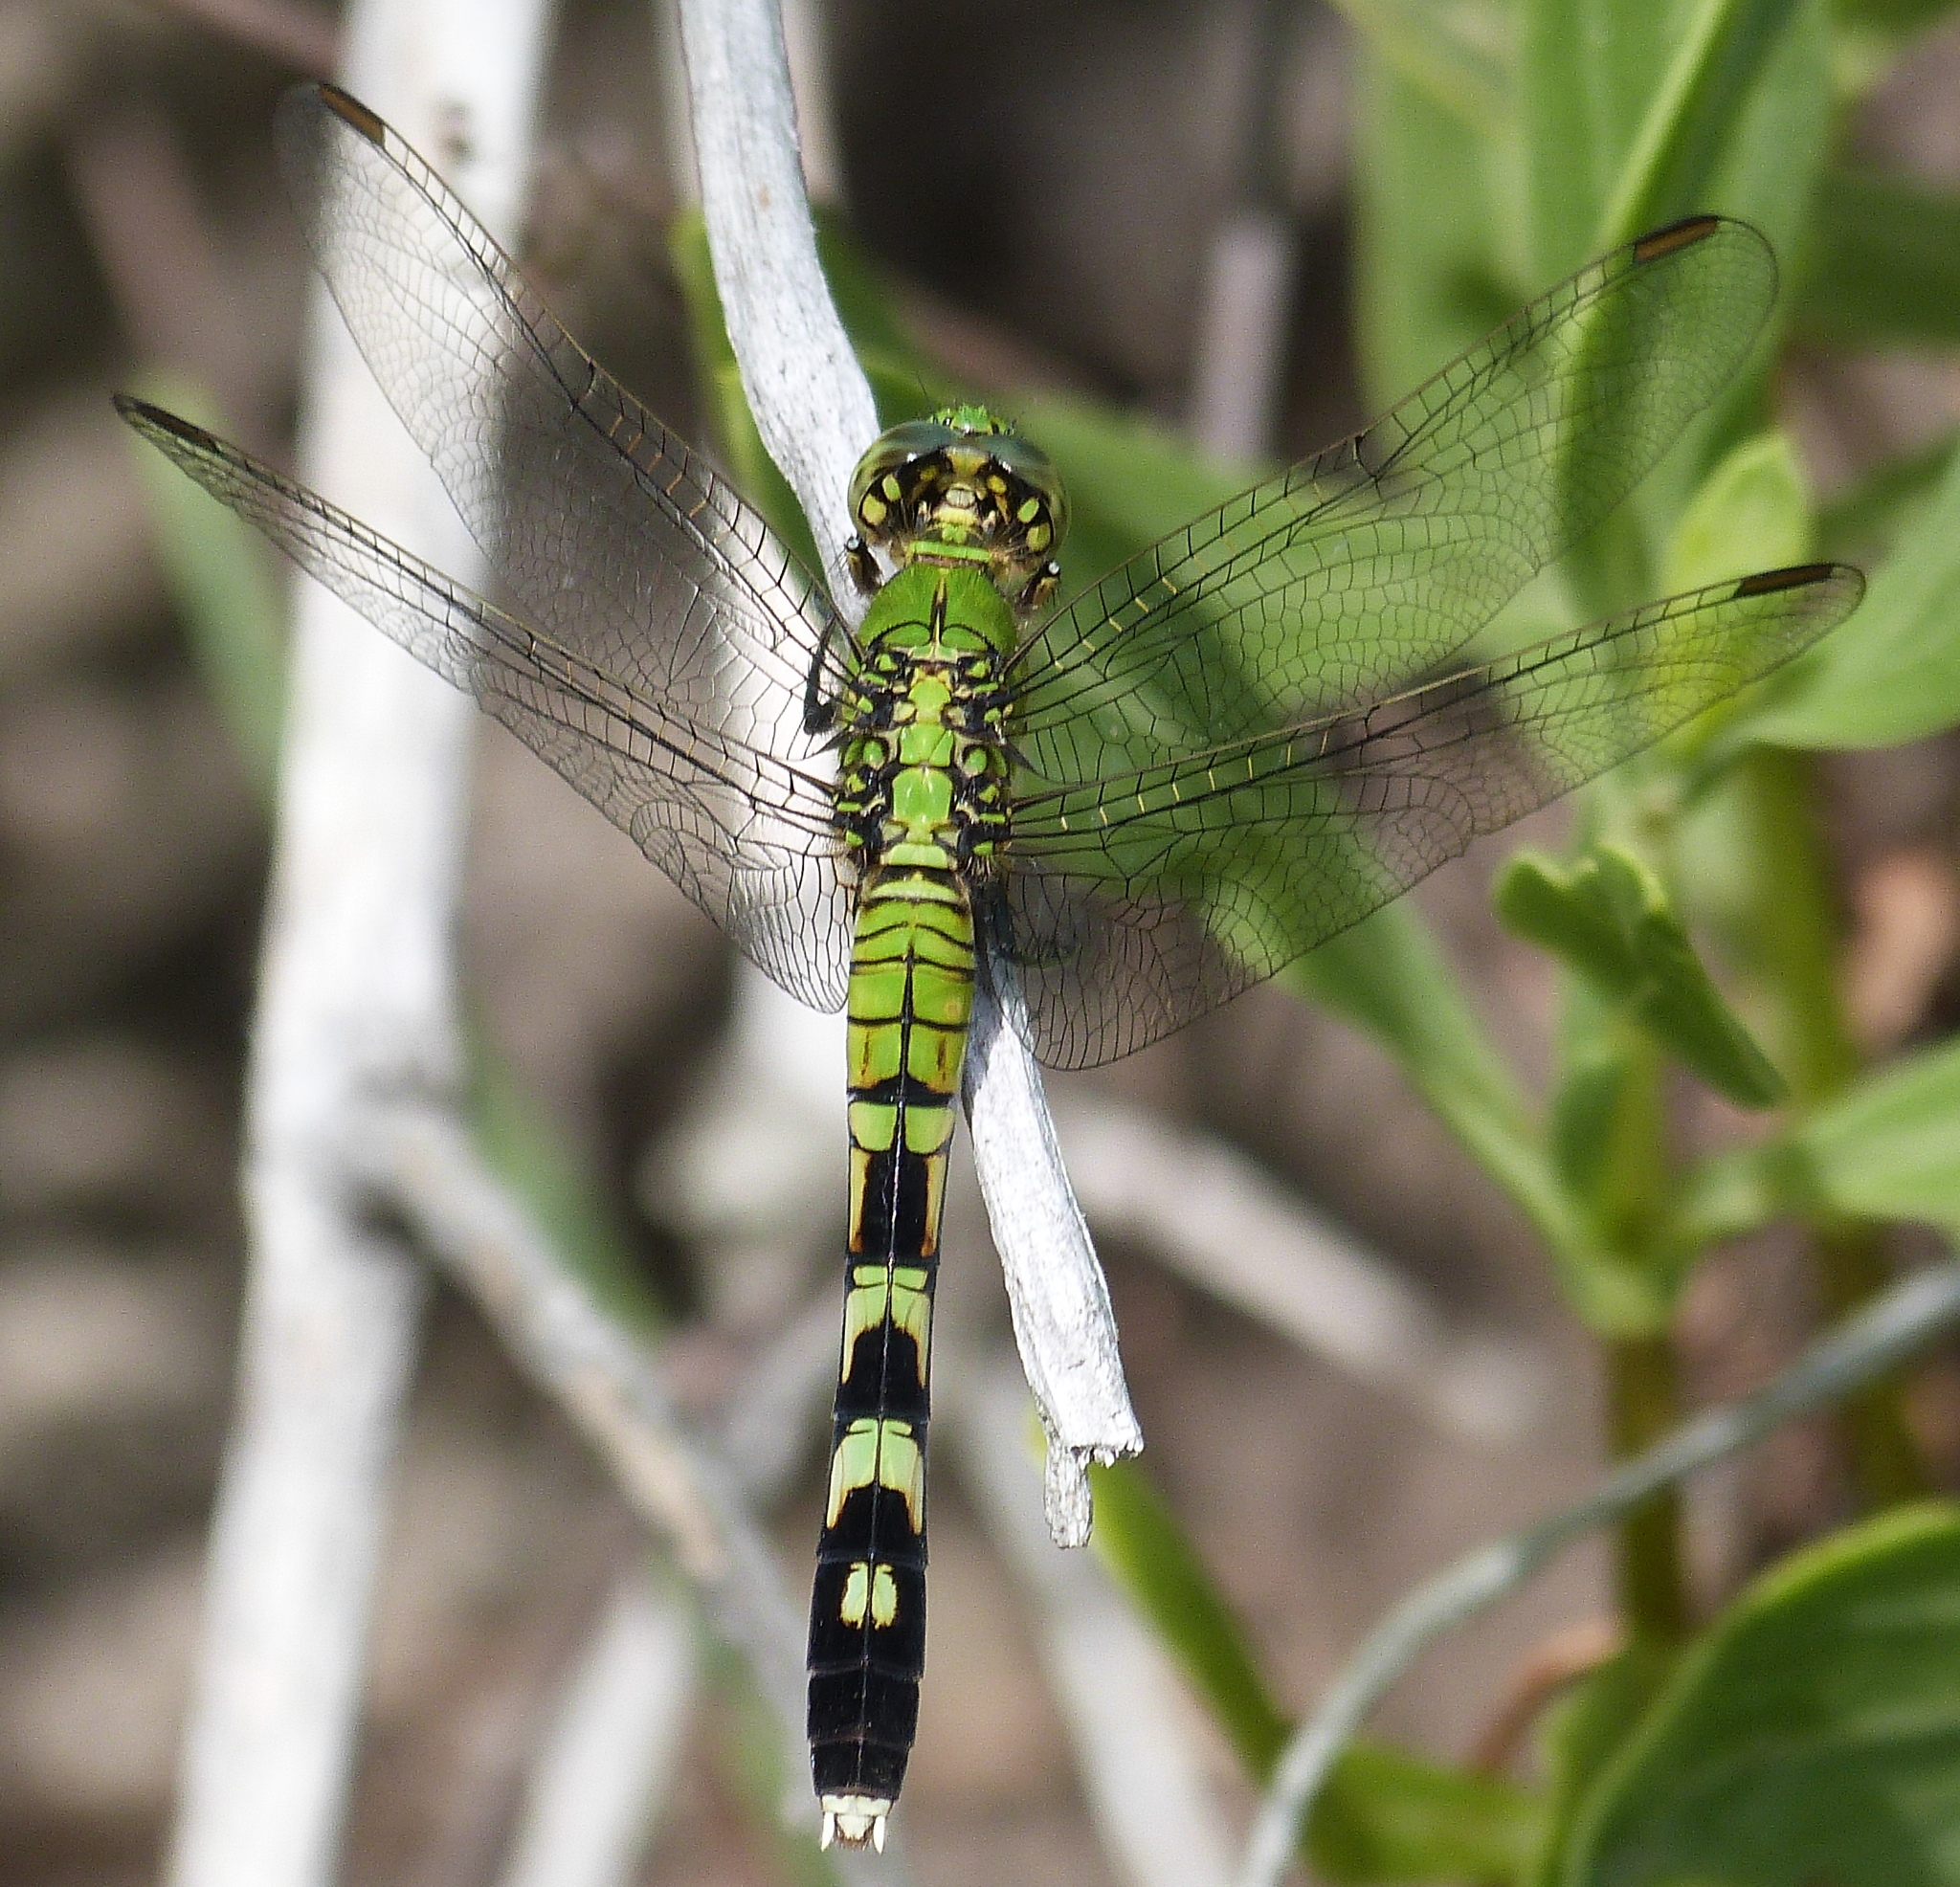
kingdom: Animalia
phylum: Arthropoda
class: Insecta
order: Odonata
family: Libellulidae
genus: Erythemis
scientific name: Erythemis simplicicollis
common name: Eastern pondhawk
